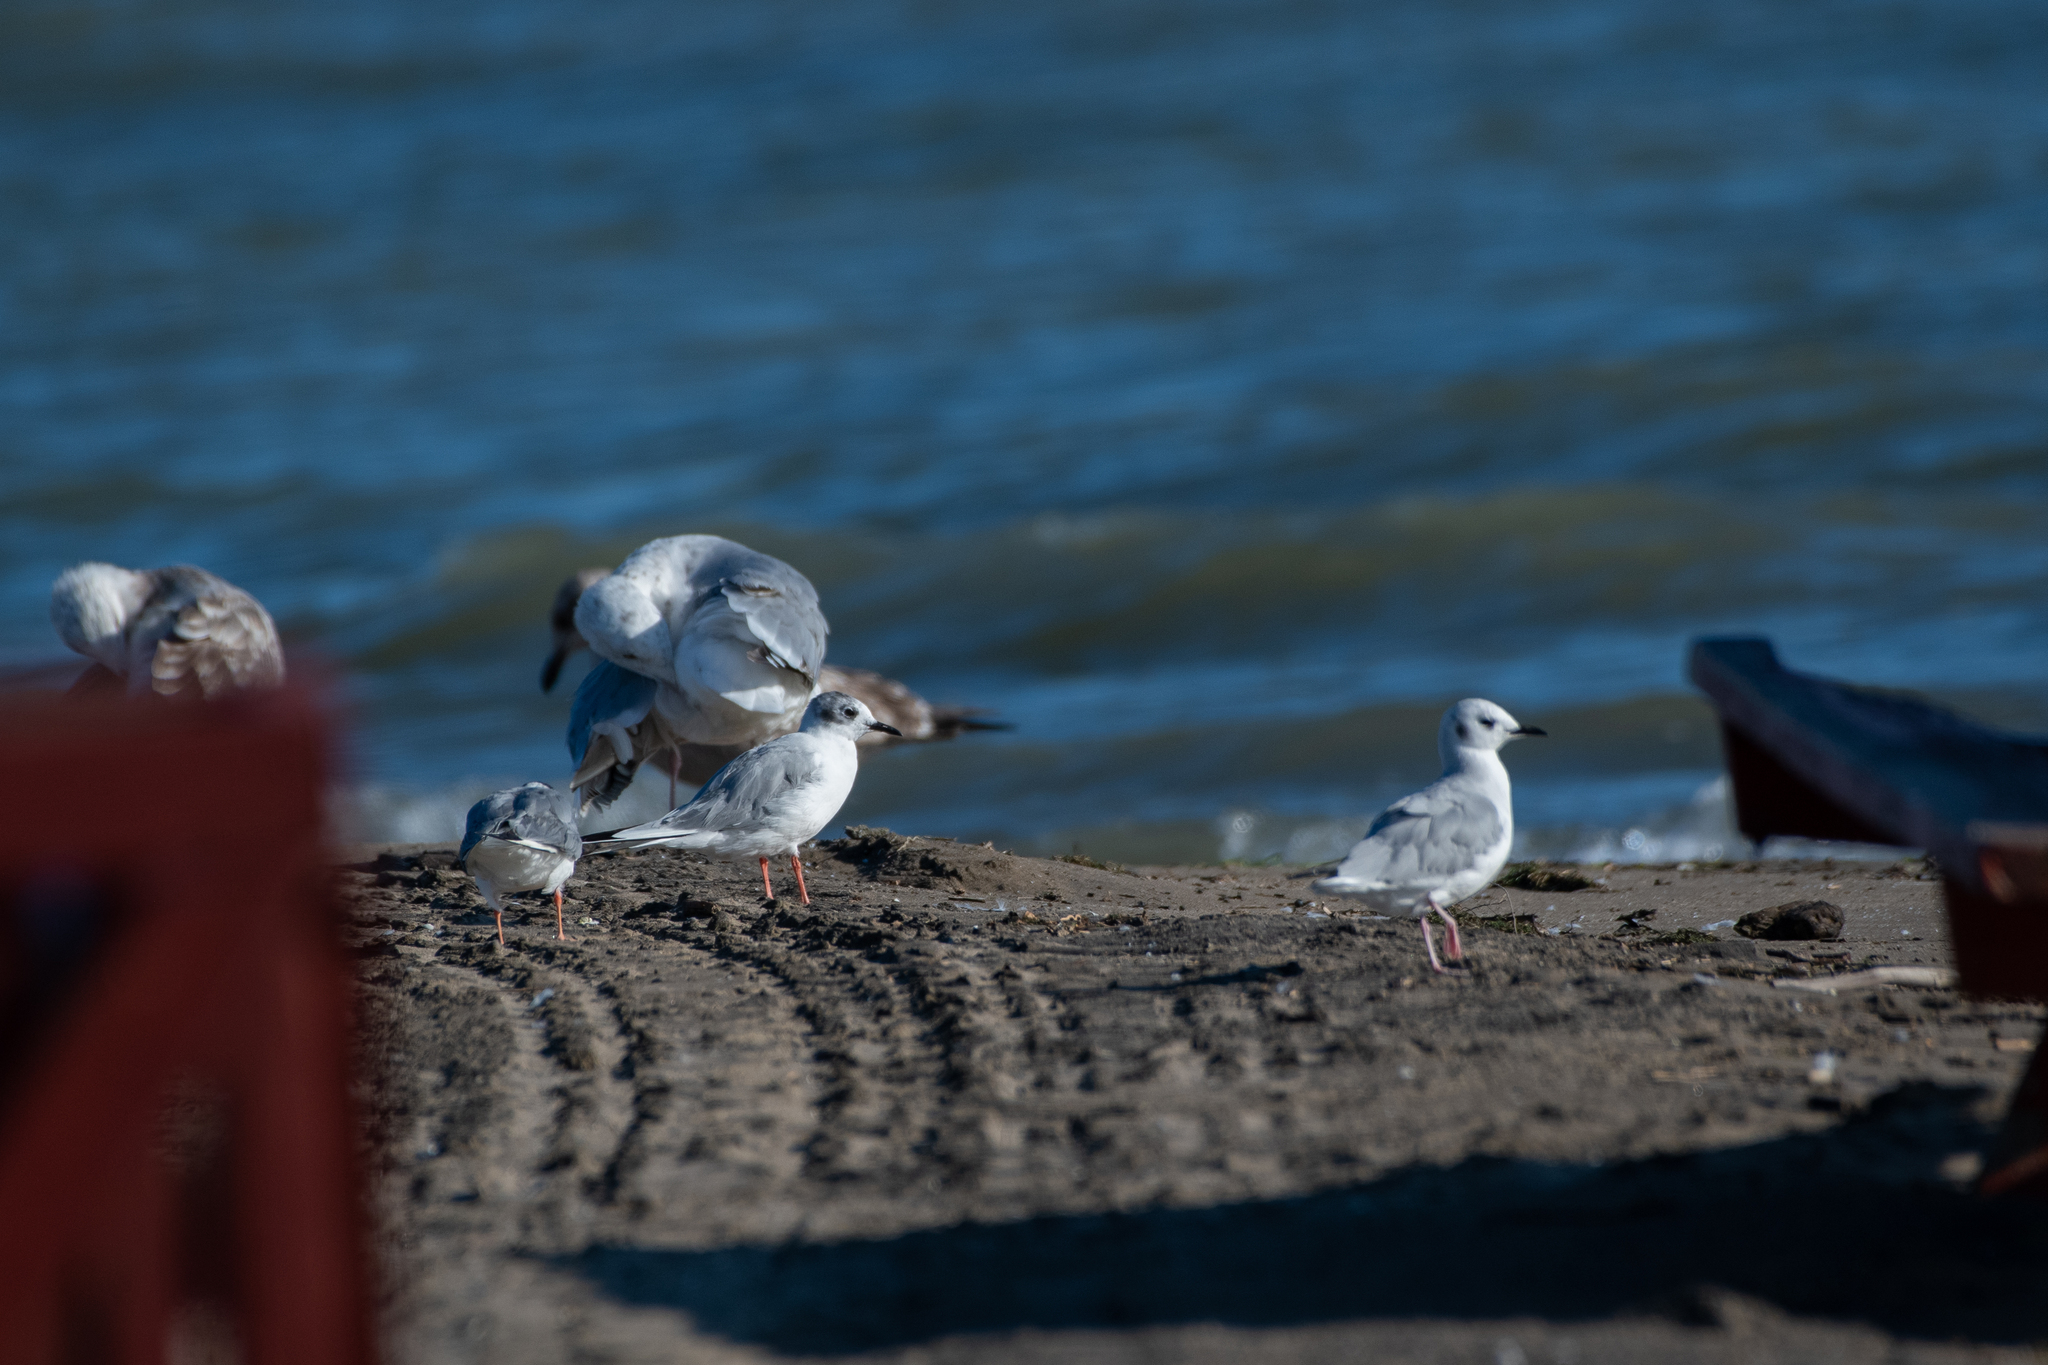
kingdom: Animalia
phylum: Chordata
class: Aves
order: Charadriiformes
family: Laridae
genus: Chroicocephalus
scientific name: Chroicocephalus philadelphia
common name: Bonaparte's gull
